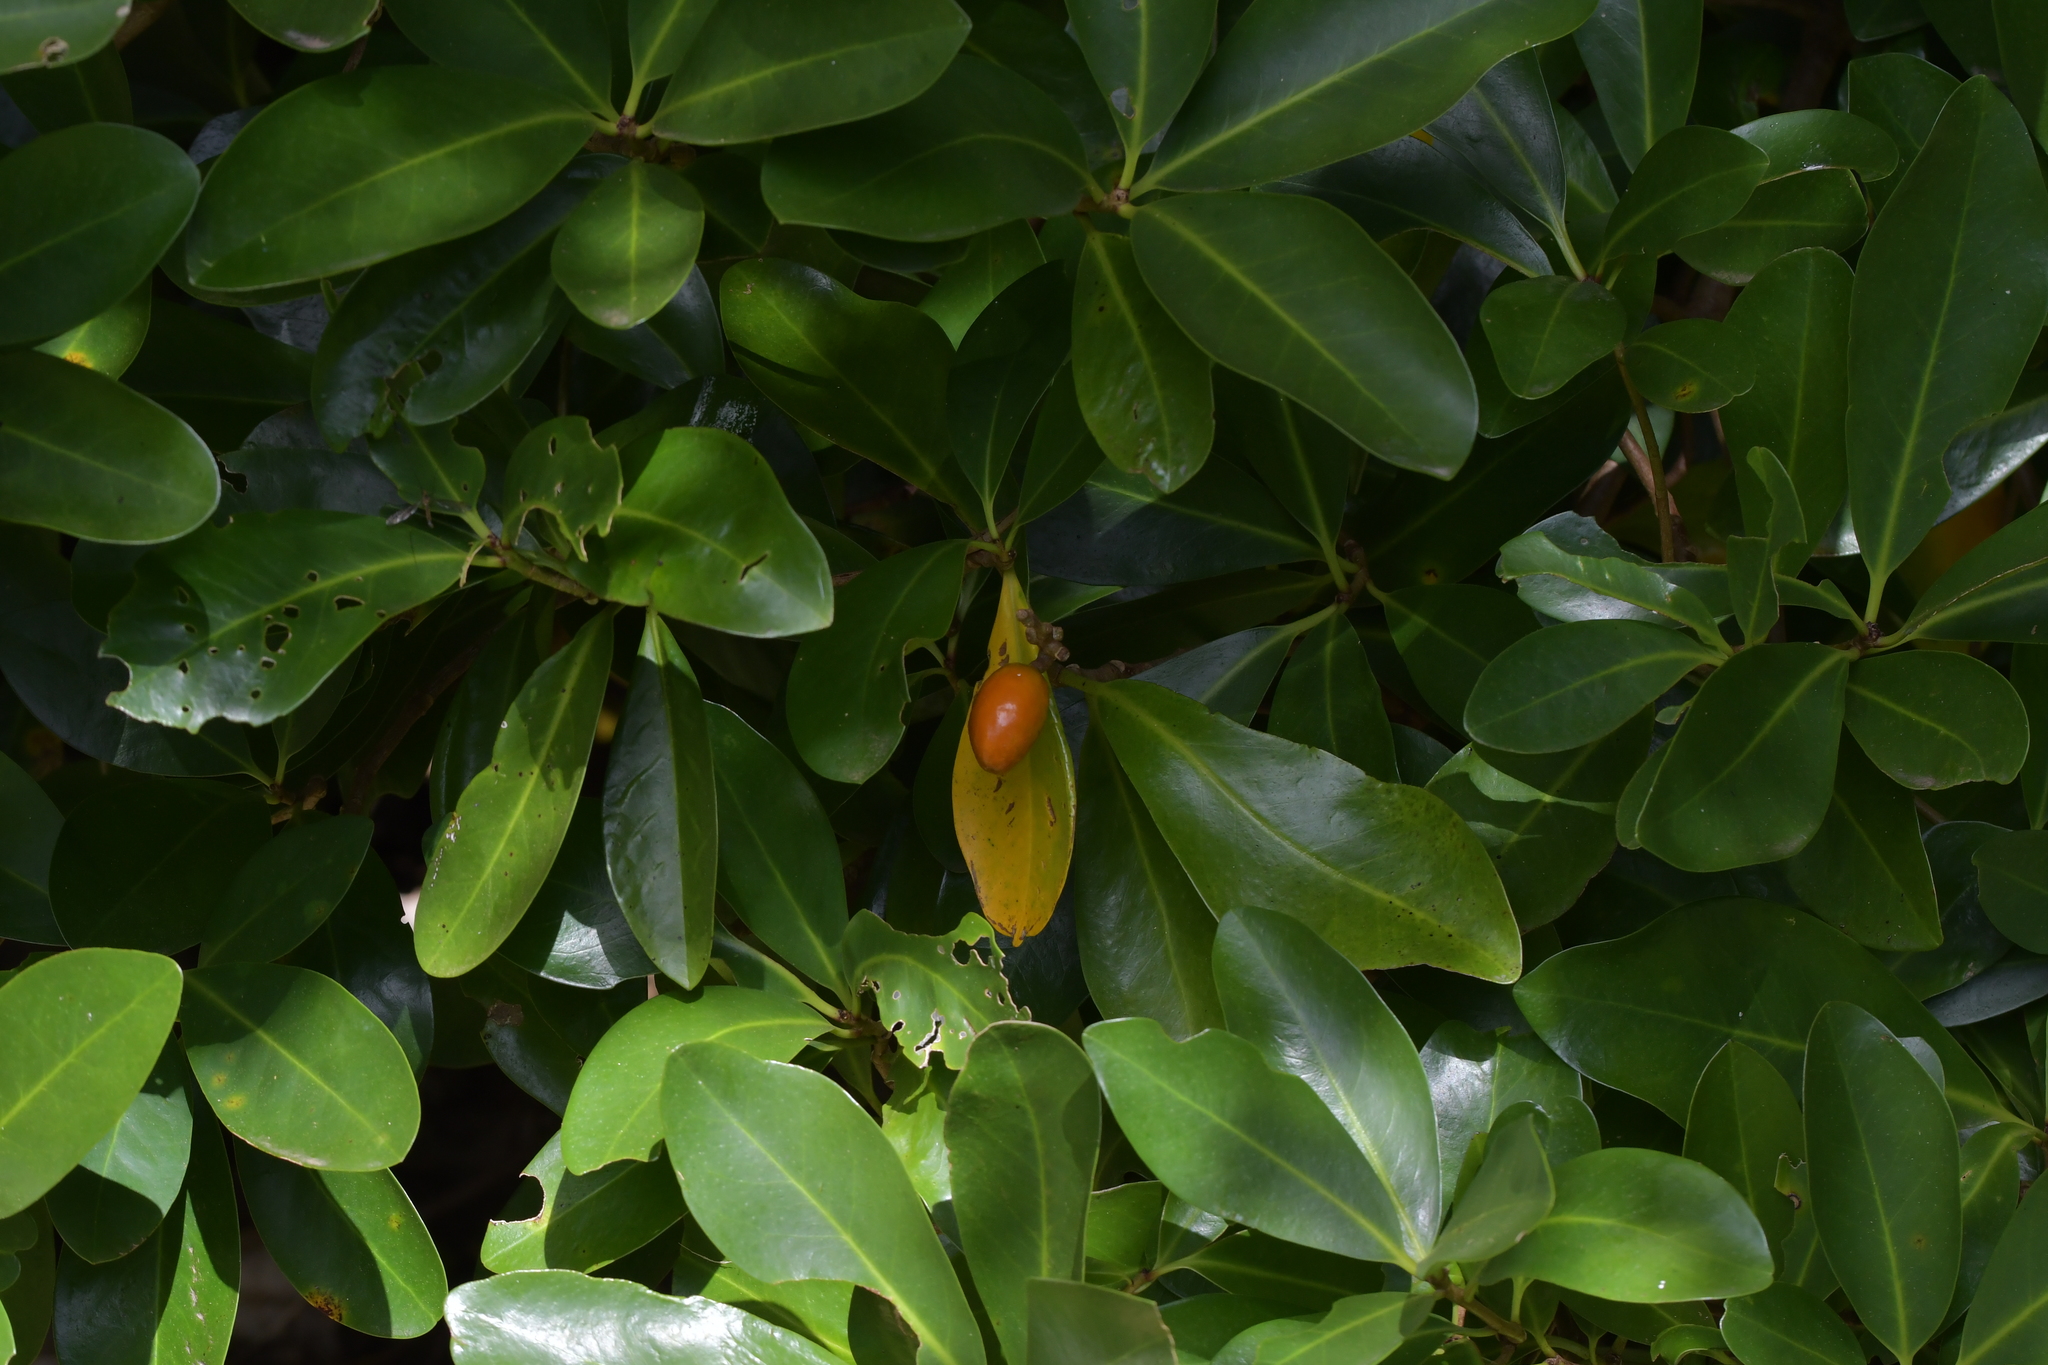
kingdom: Plantae
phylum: Tracheophyta
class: Magnoliopsida
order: Cucurbitales
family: Corynocarpaceae
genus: Corynocarpus
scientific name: Corynocarpus laevigatus
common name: New zealand laurel
